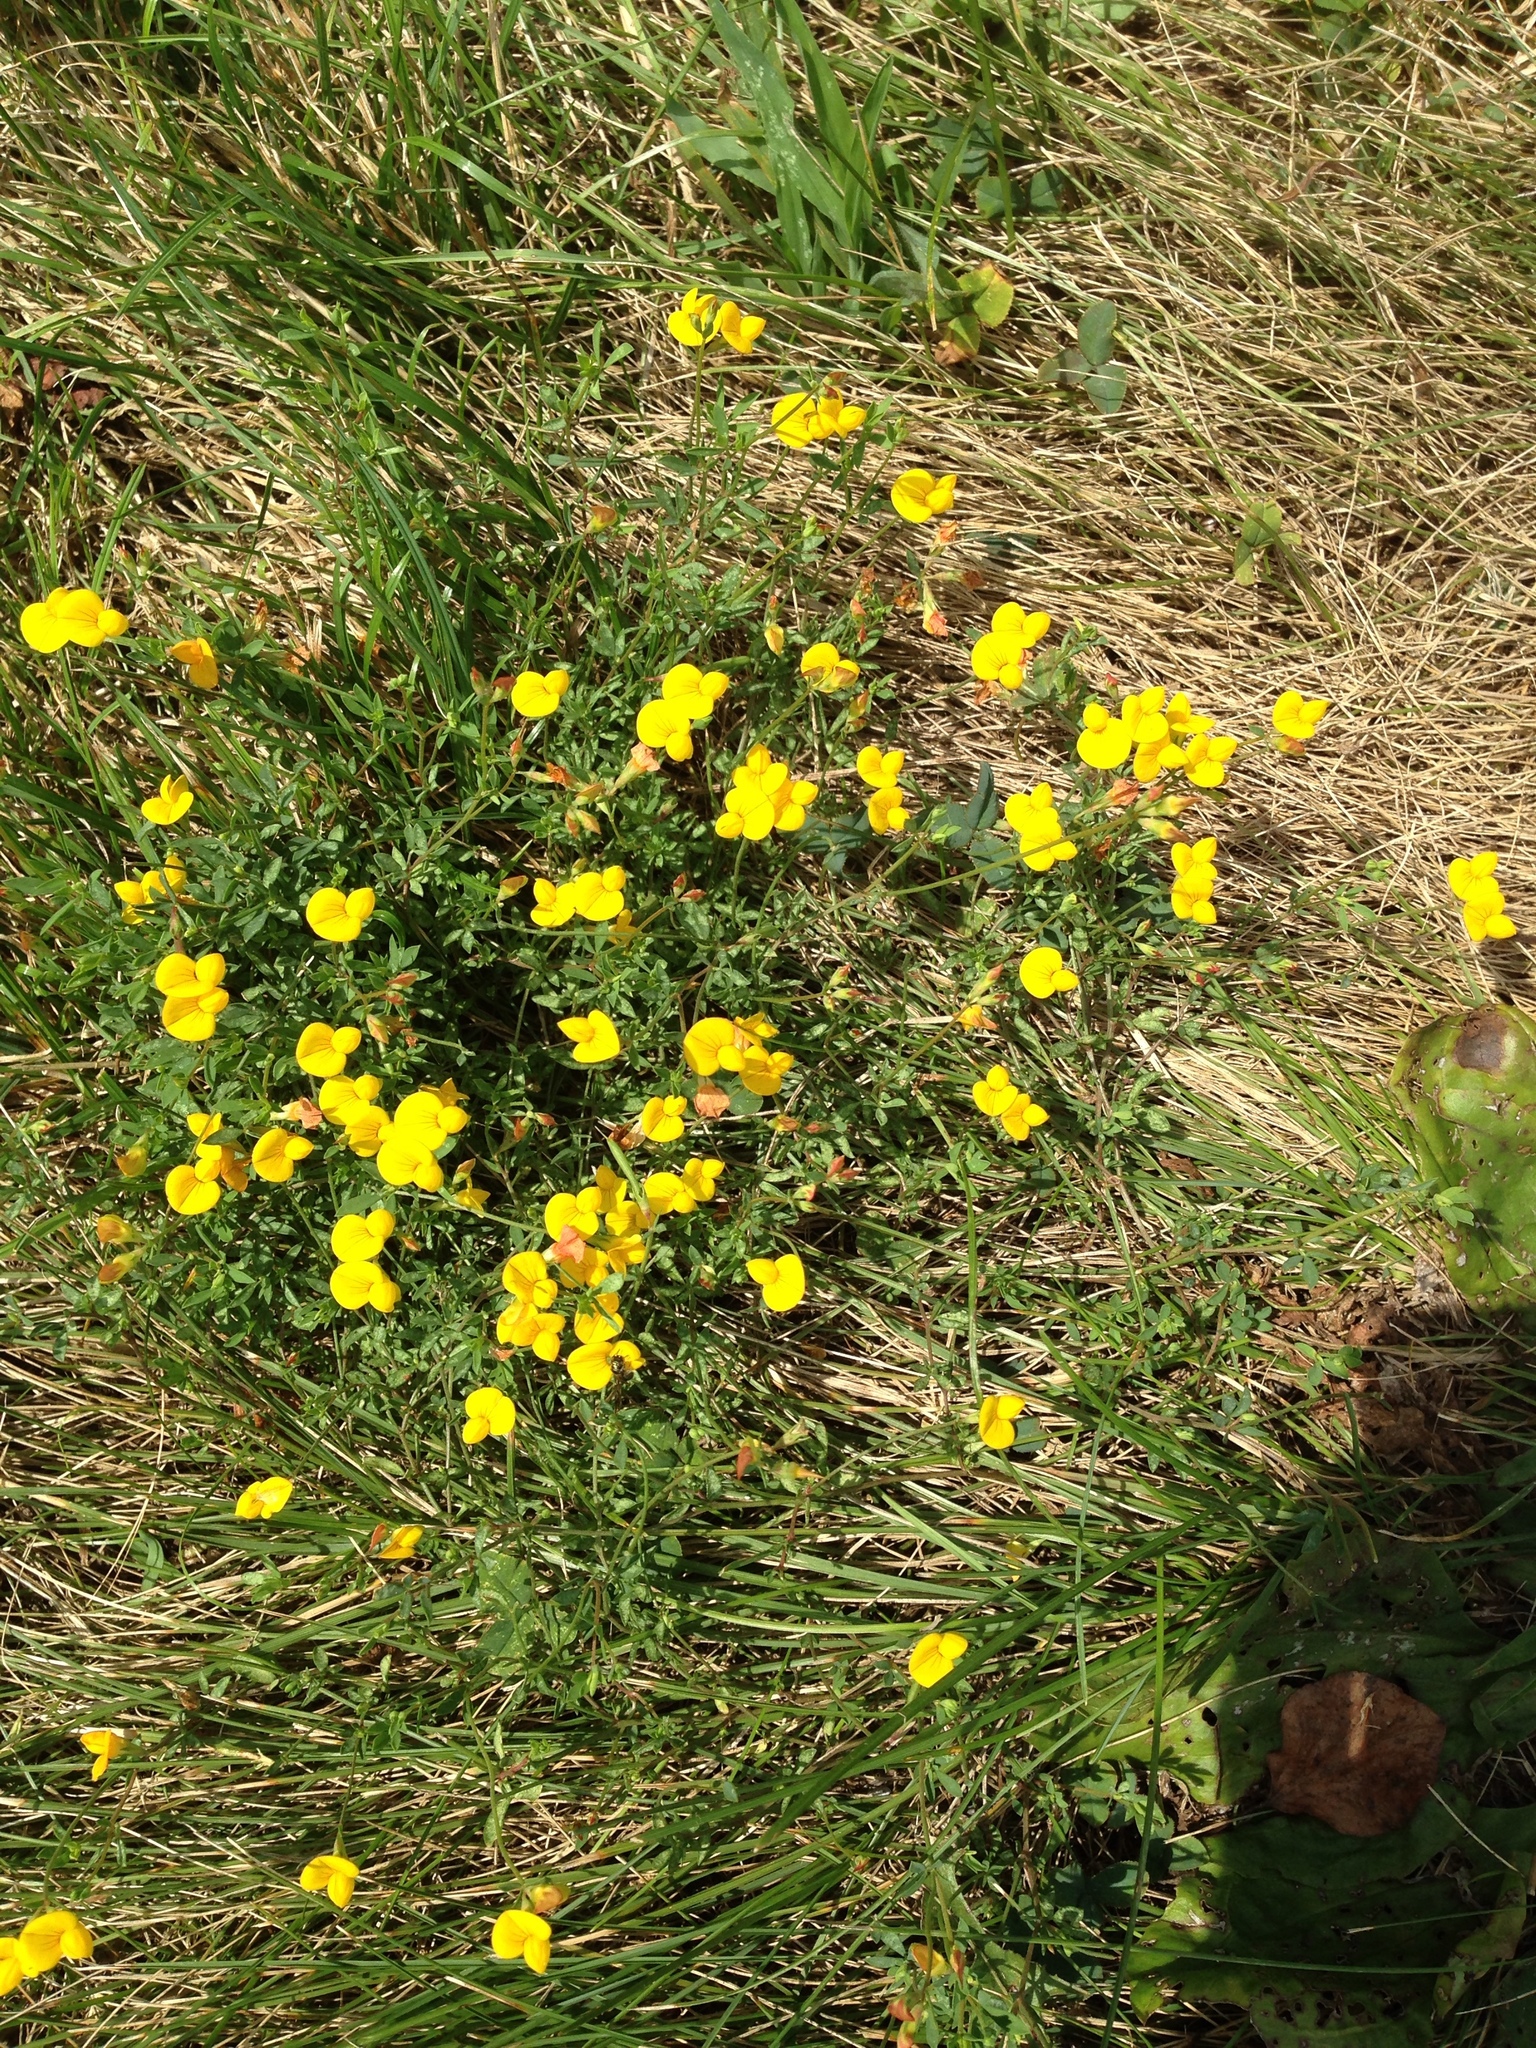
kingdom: Plantae
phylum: Tracheophyta
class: Magnoliopsida
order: Fabales
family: Fabaceae
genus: Lotus
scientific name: Lotus corniculatus
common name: Common bird's-foot-trefoil
